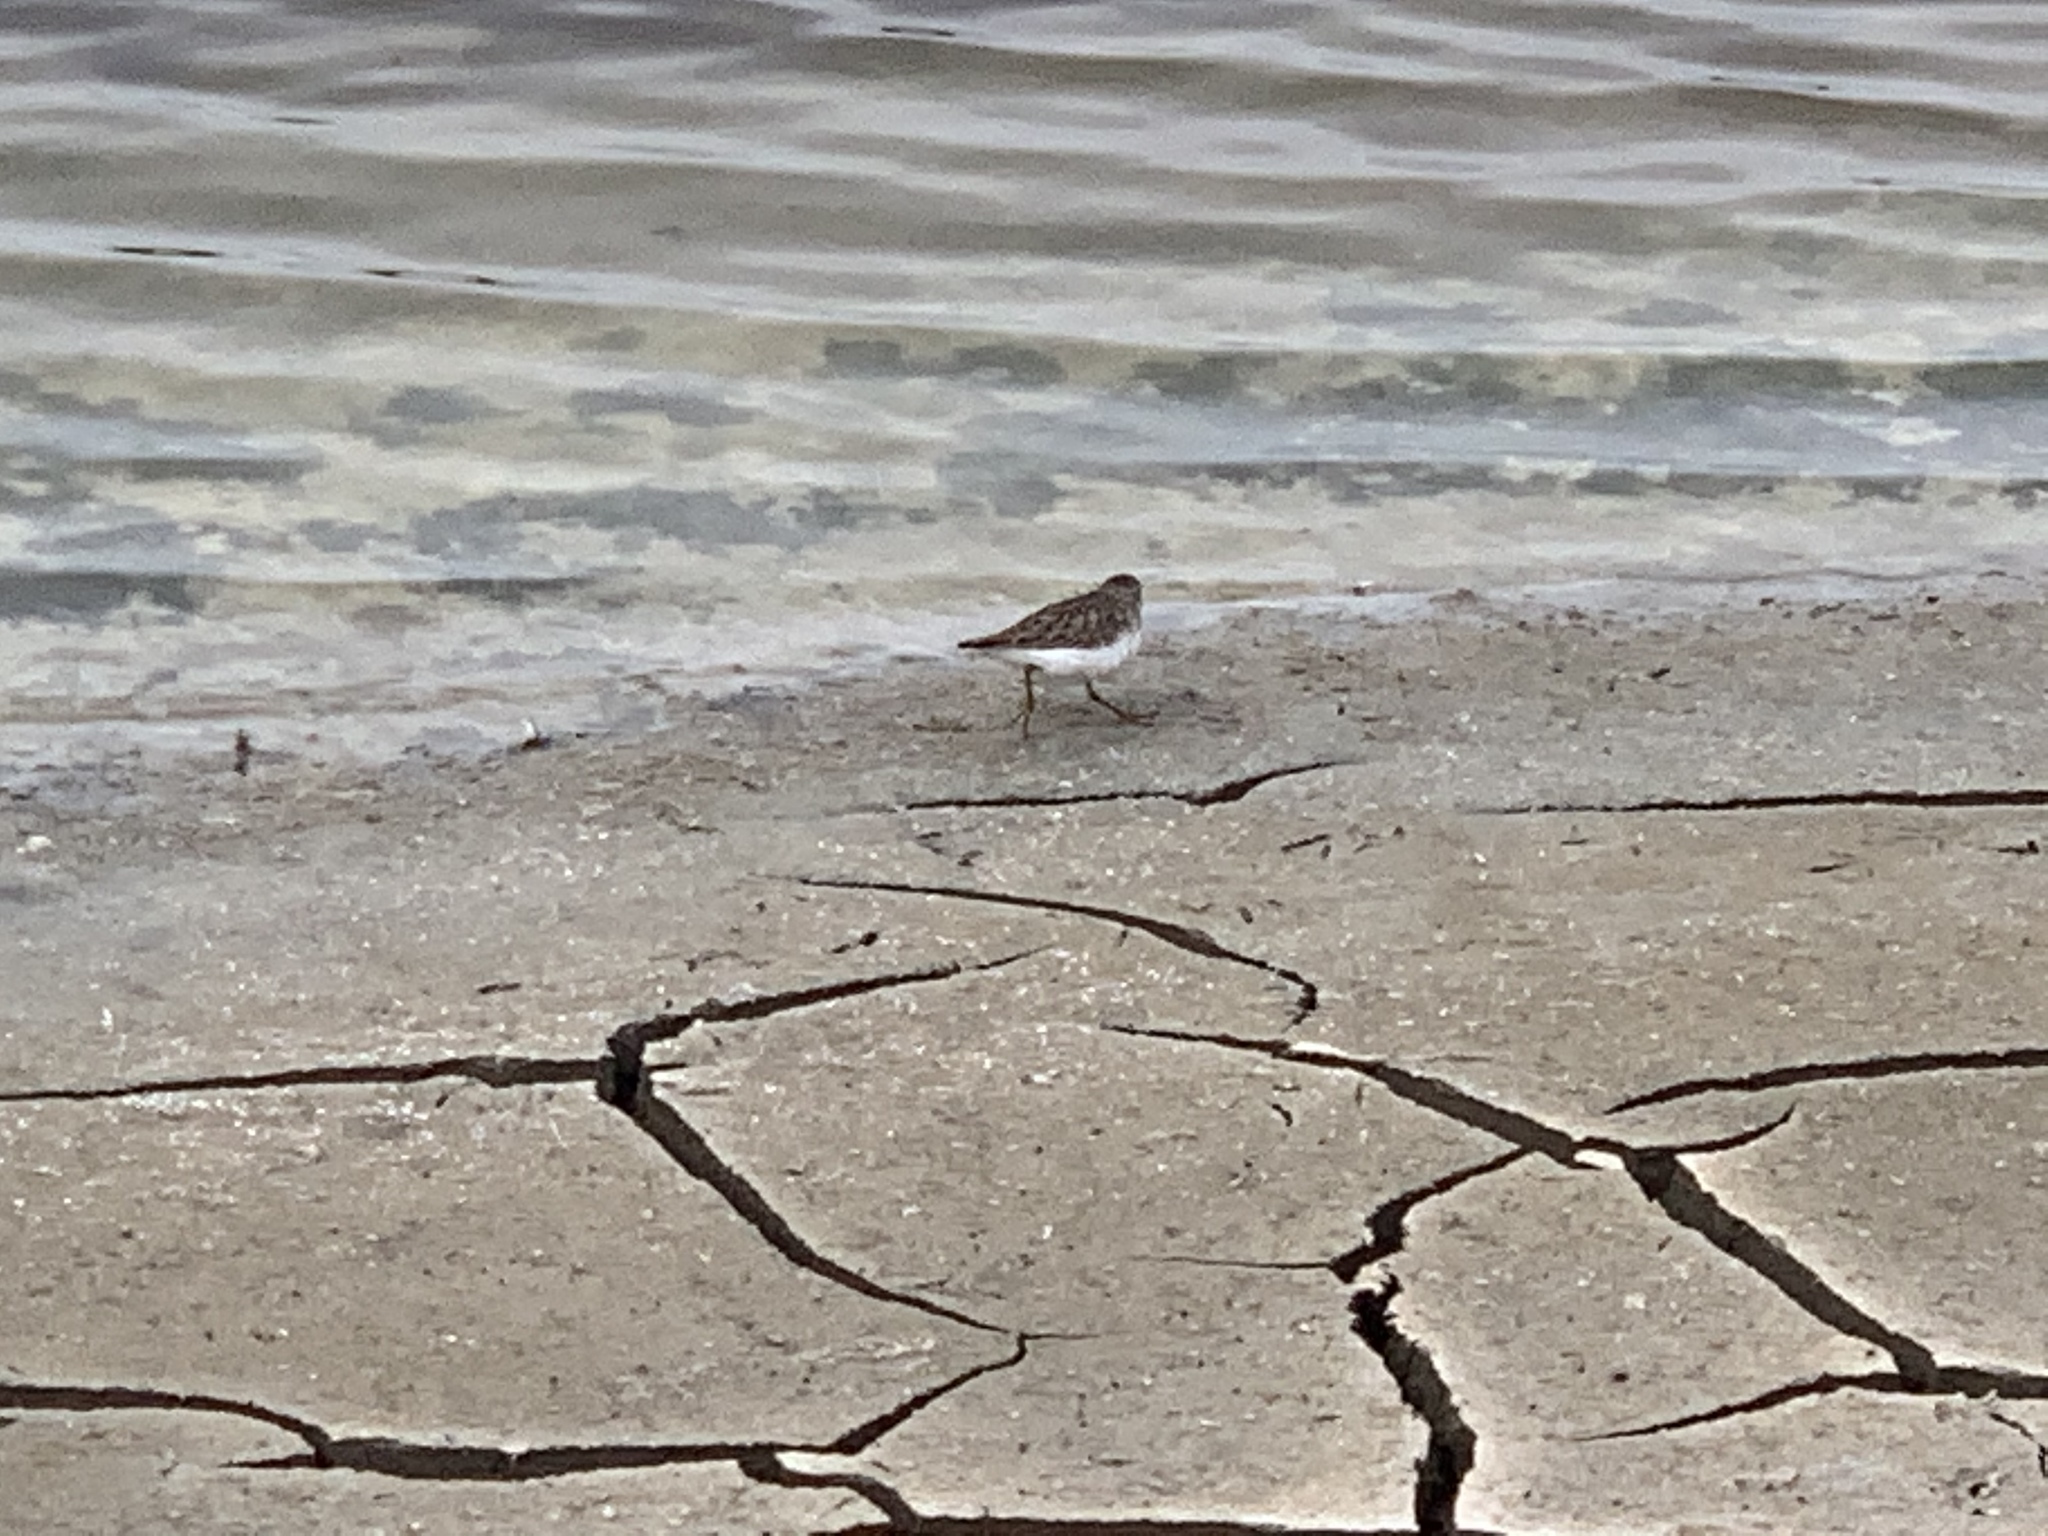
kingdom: Animalia
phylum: Chordata
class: Aves
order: Charadriiformes
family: Scolopacidae
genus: Calidris
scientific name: Calidris minutilla
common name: Least sandpiper
